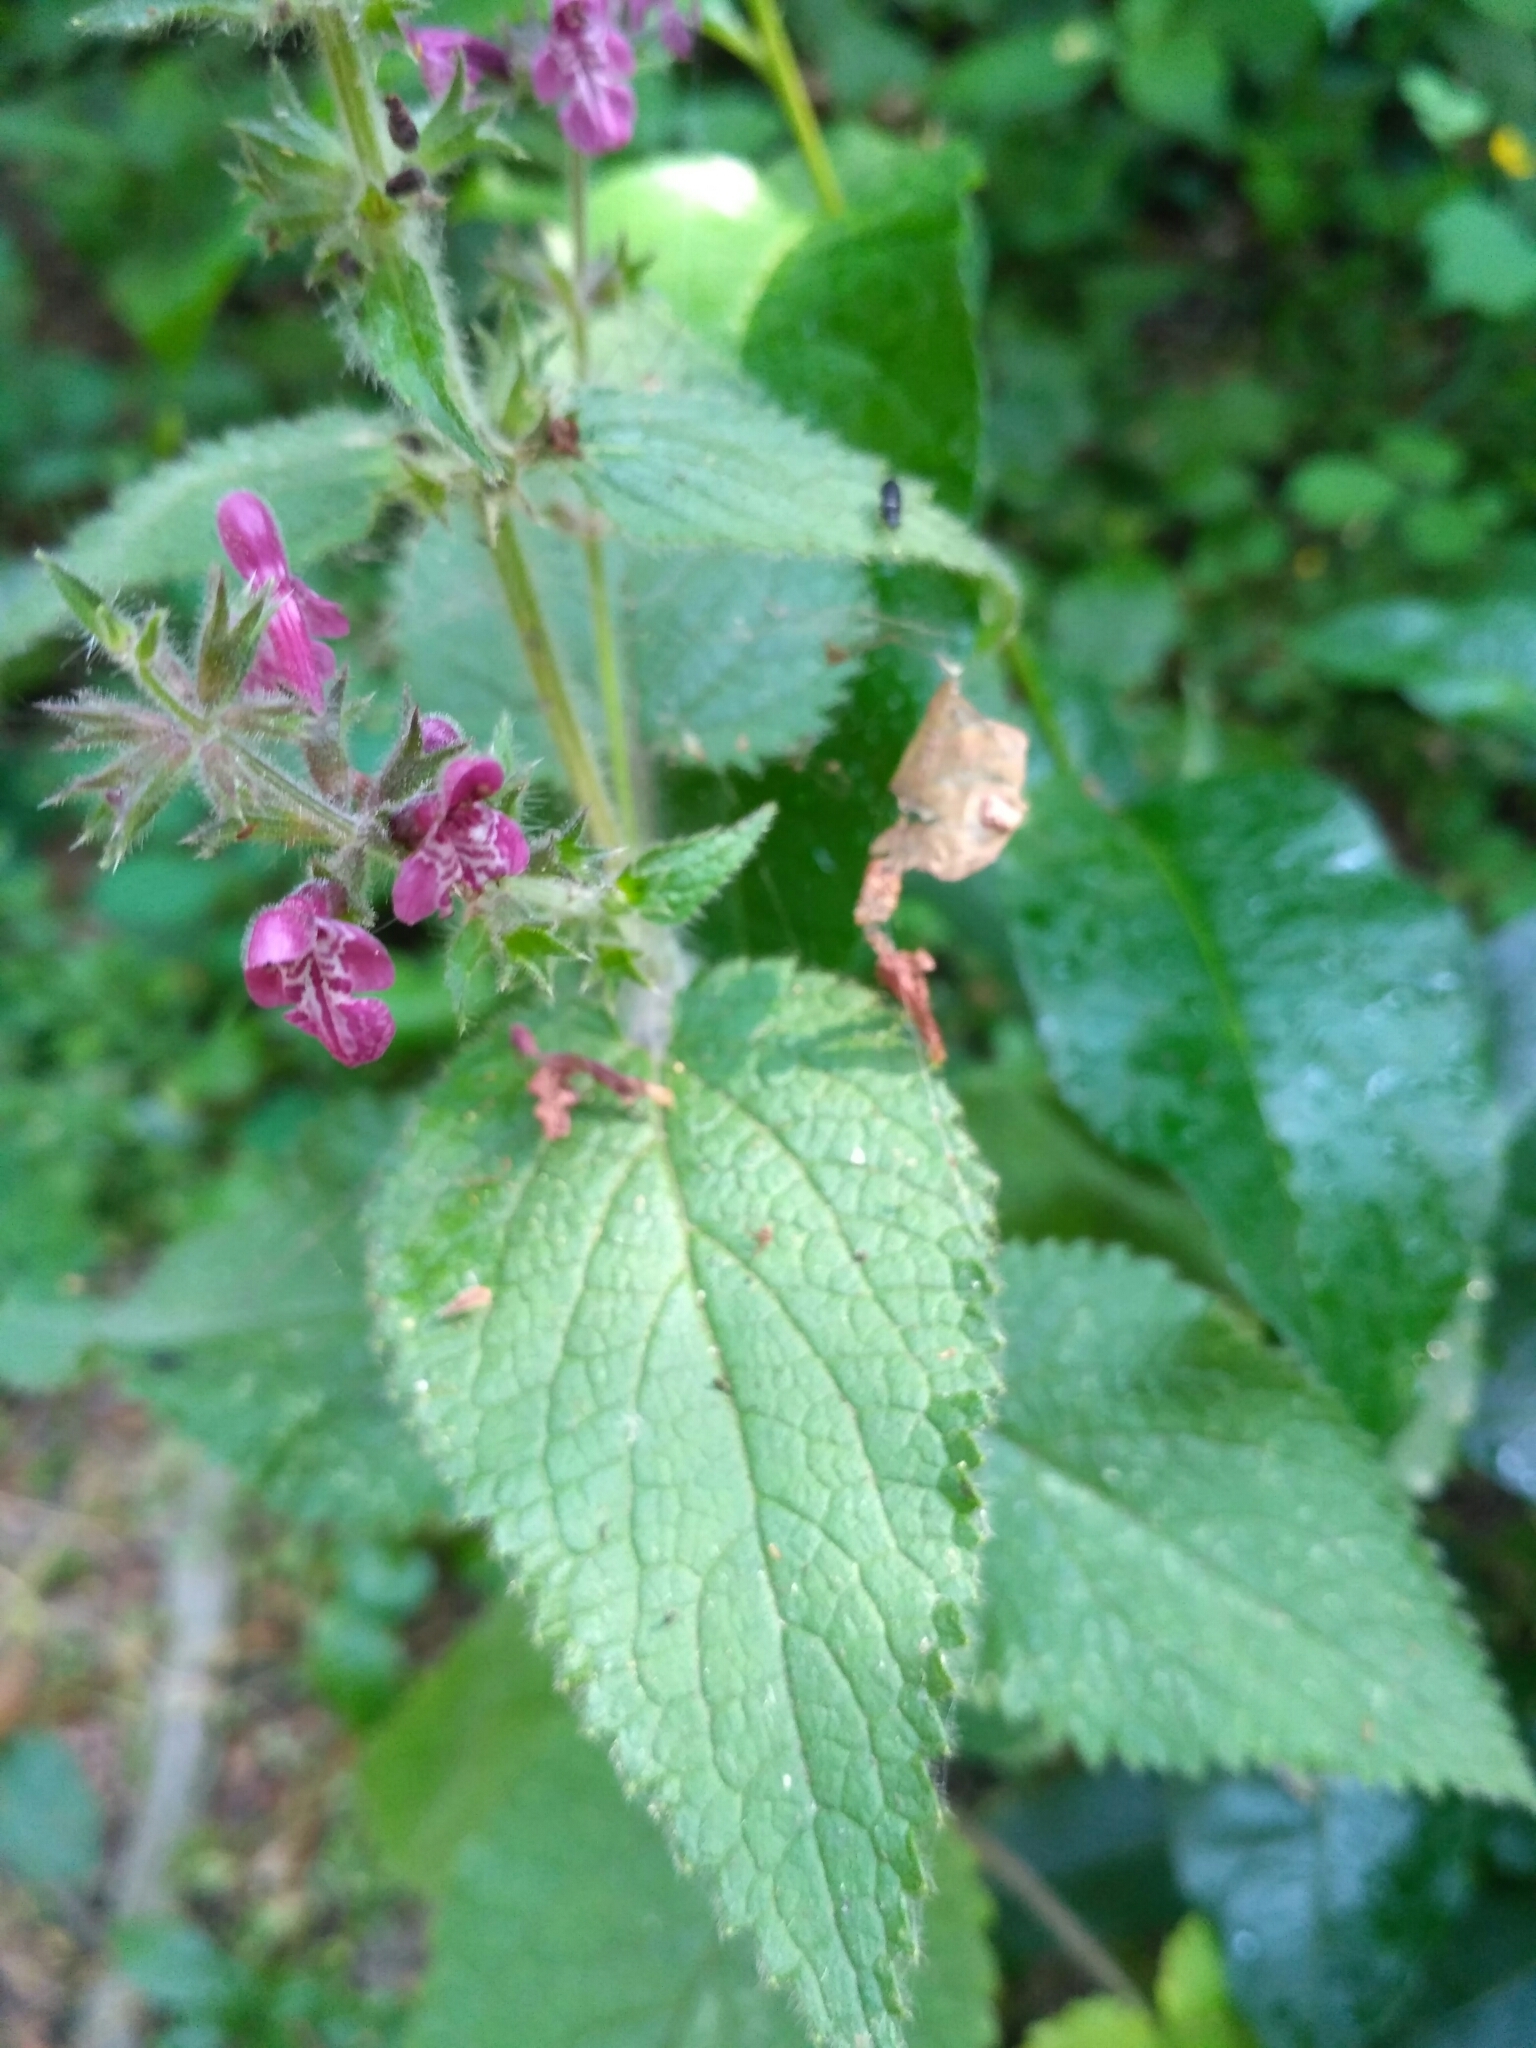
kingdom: Plantae
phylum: Tracheophyta
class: Magnoliopsida
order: Lamiales
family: Lamiaceae
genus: Stachys
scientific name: Stachys sylvatica
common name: Hedge woundwort
